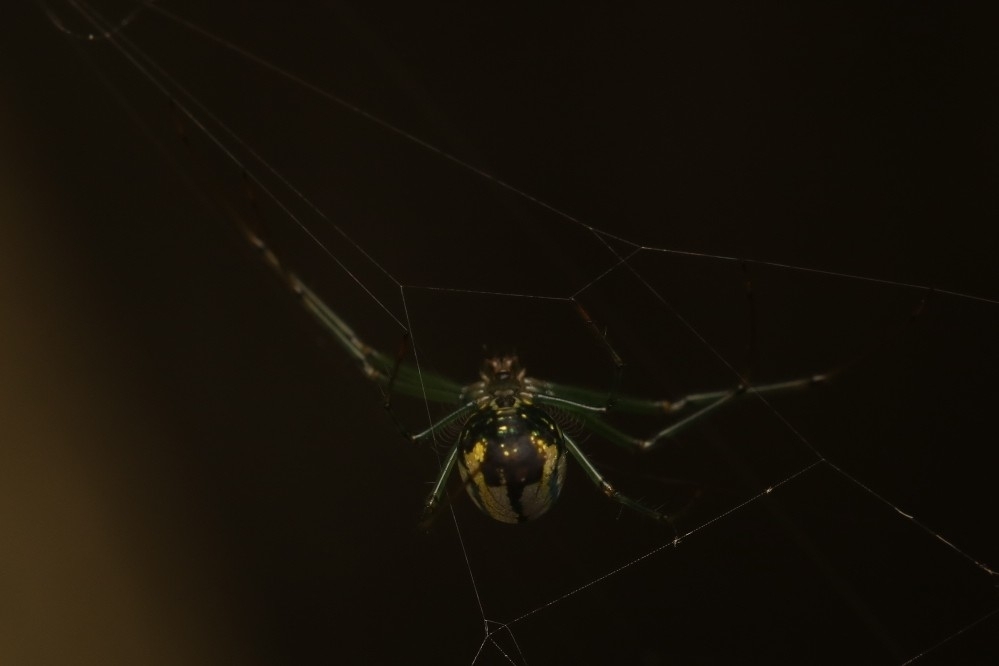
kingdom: Animalia
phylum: Arthropoda
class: Arachnida
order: Araneae
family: Tetragnathidae
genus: Leucauge
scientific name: Leucauge venusta
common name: Longjawed orb weavers
